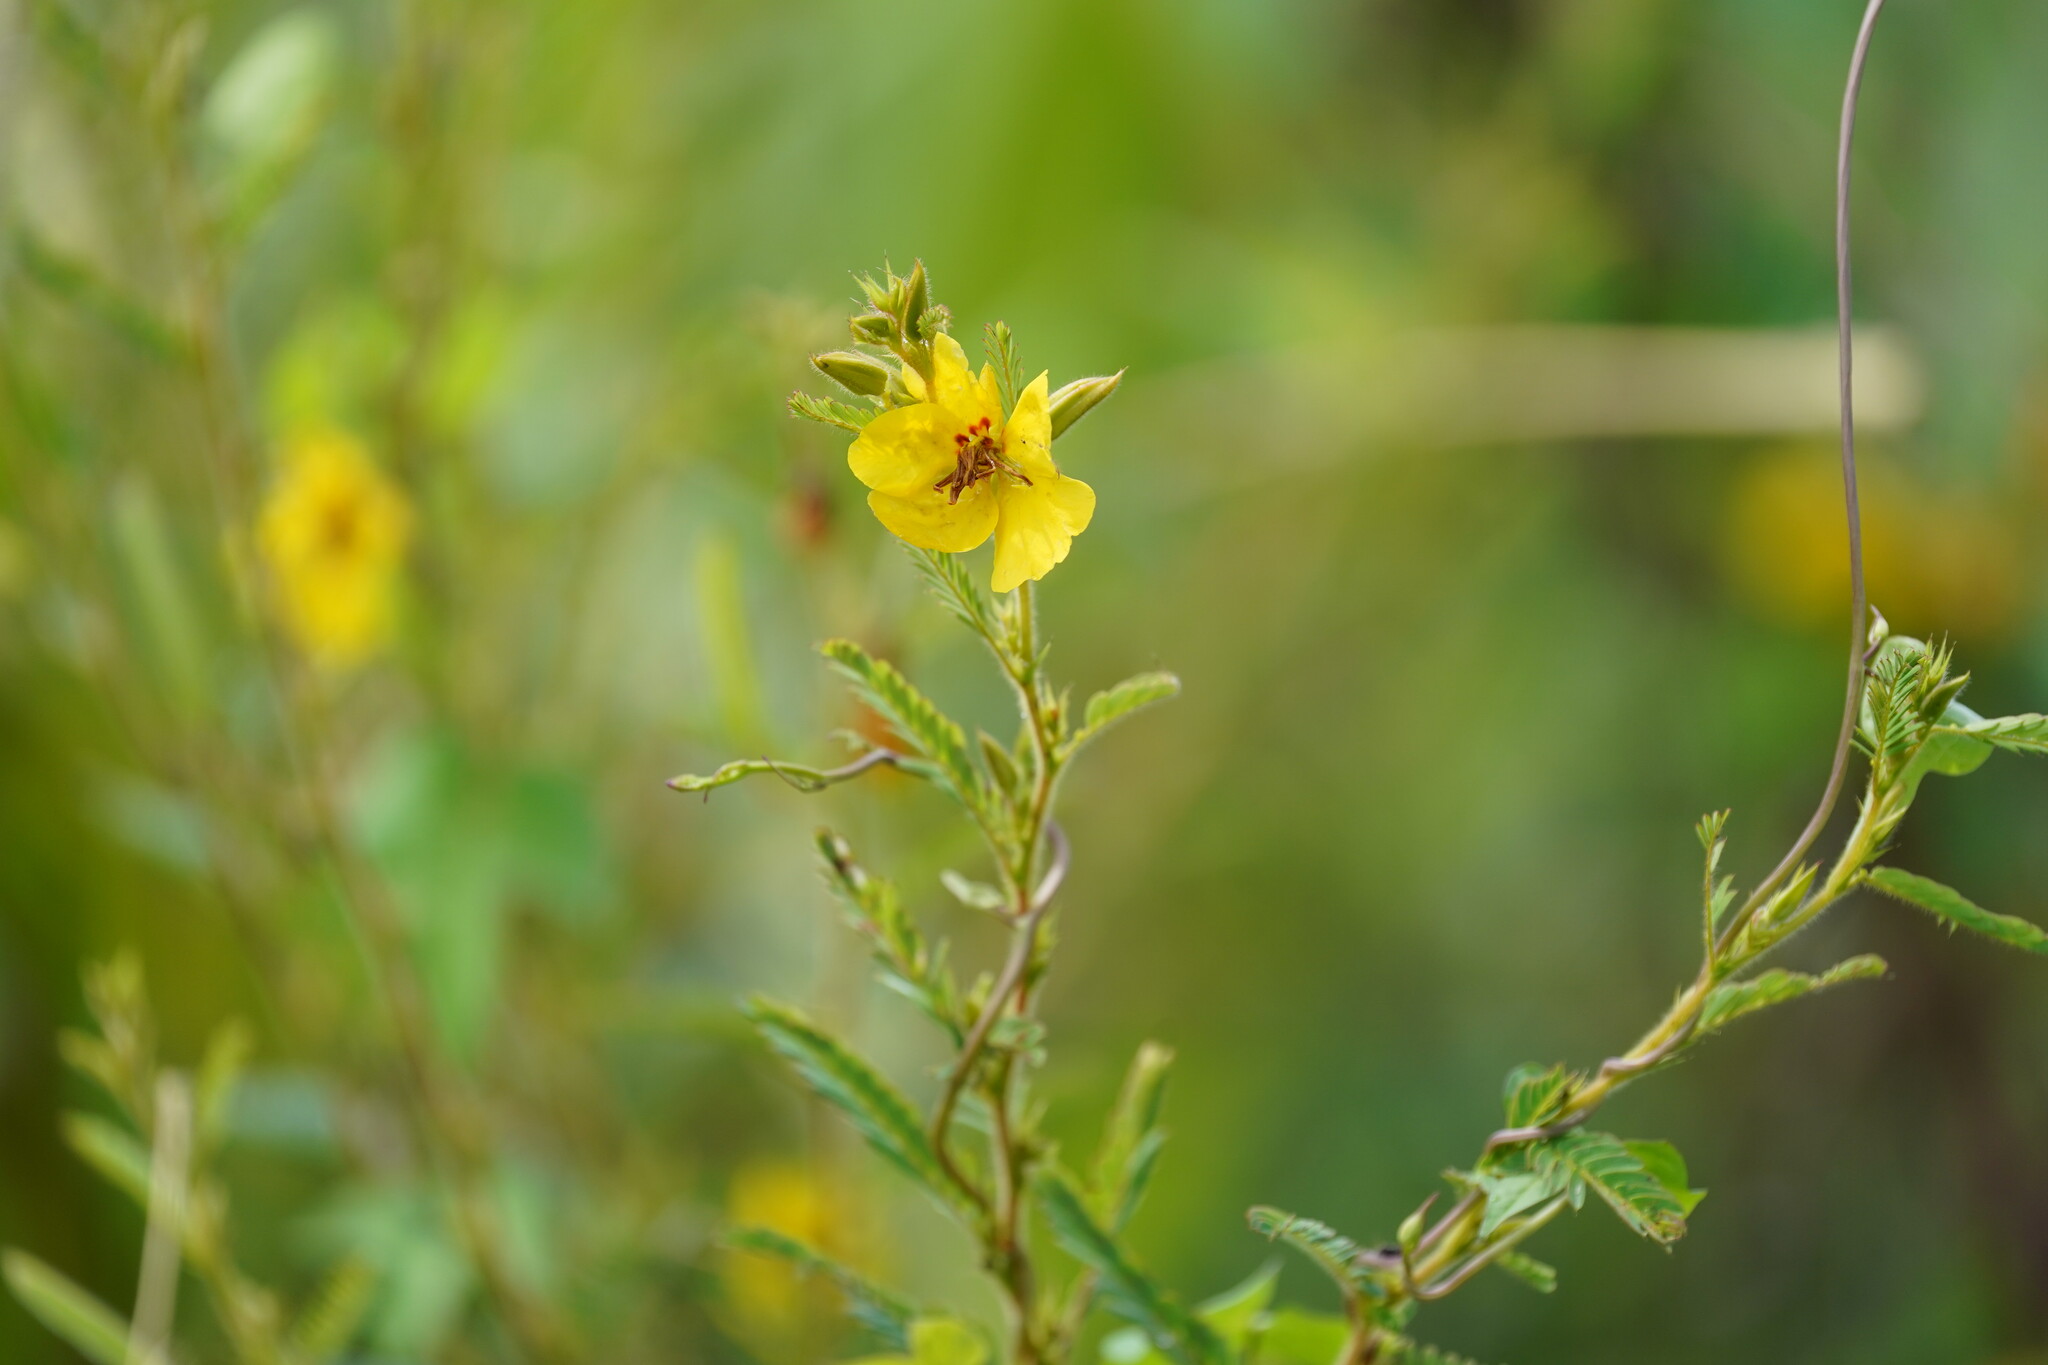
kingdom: Plantae
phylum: Tracheophyta
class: Magnoliopsida
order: Fabales
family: Fabaceae
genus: Chamaecrista
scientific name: Chamaecrista fasciculata
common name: Golden cassia
